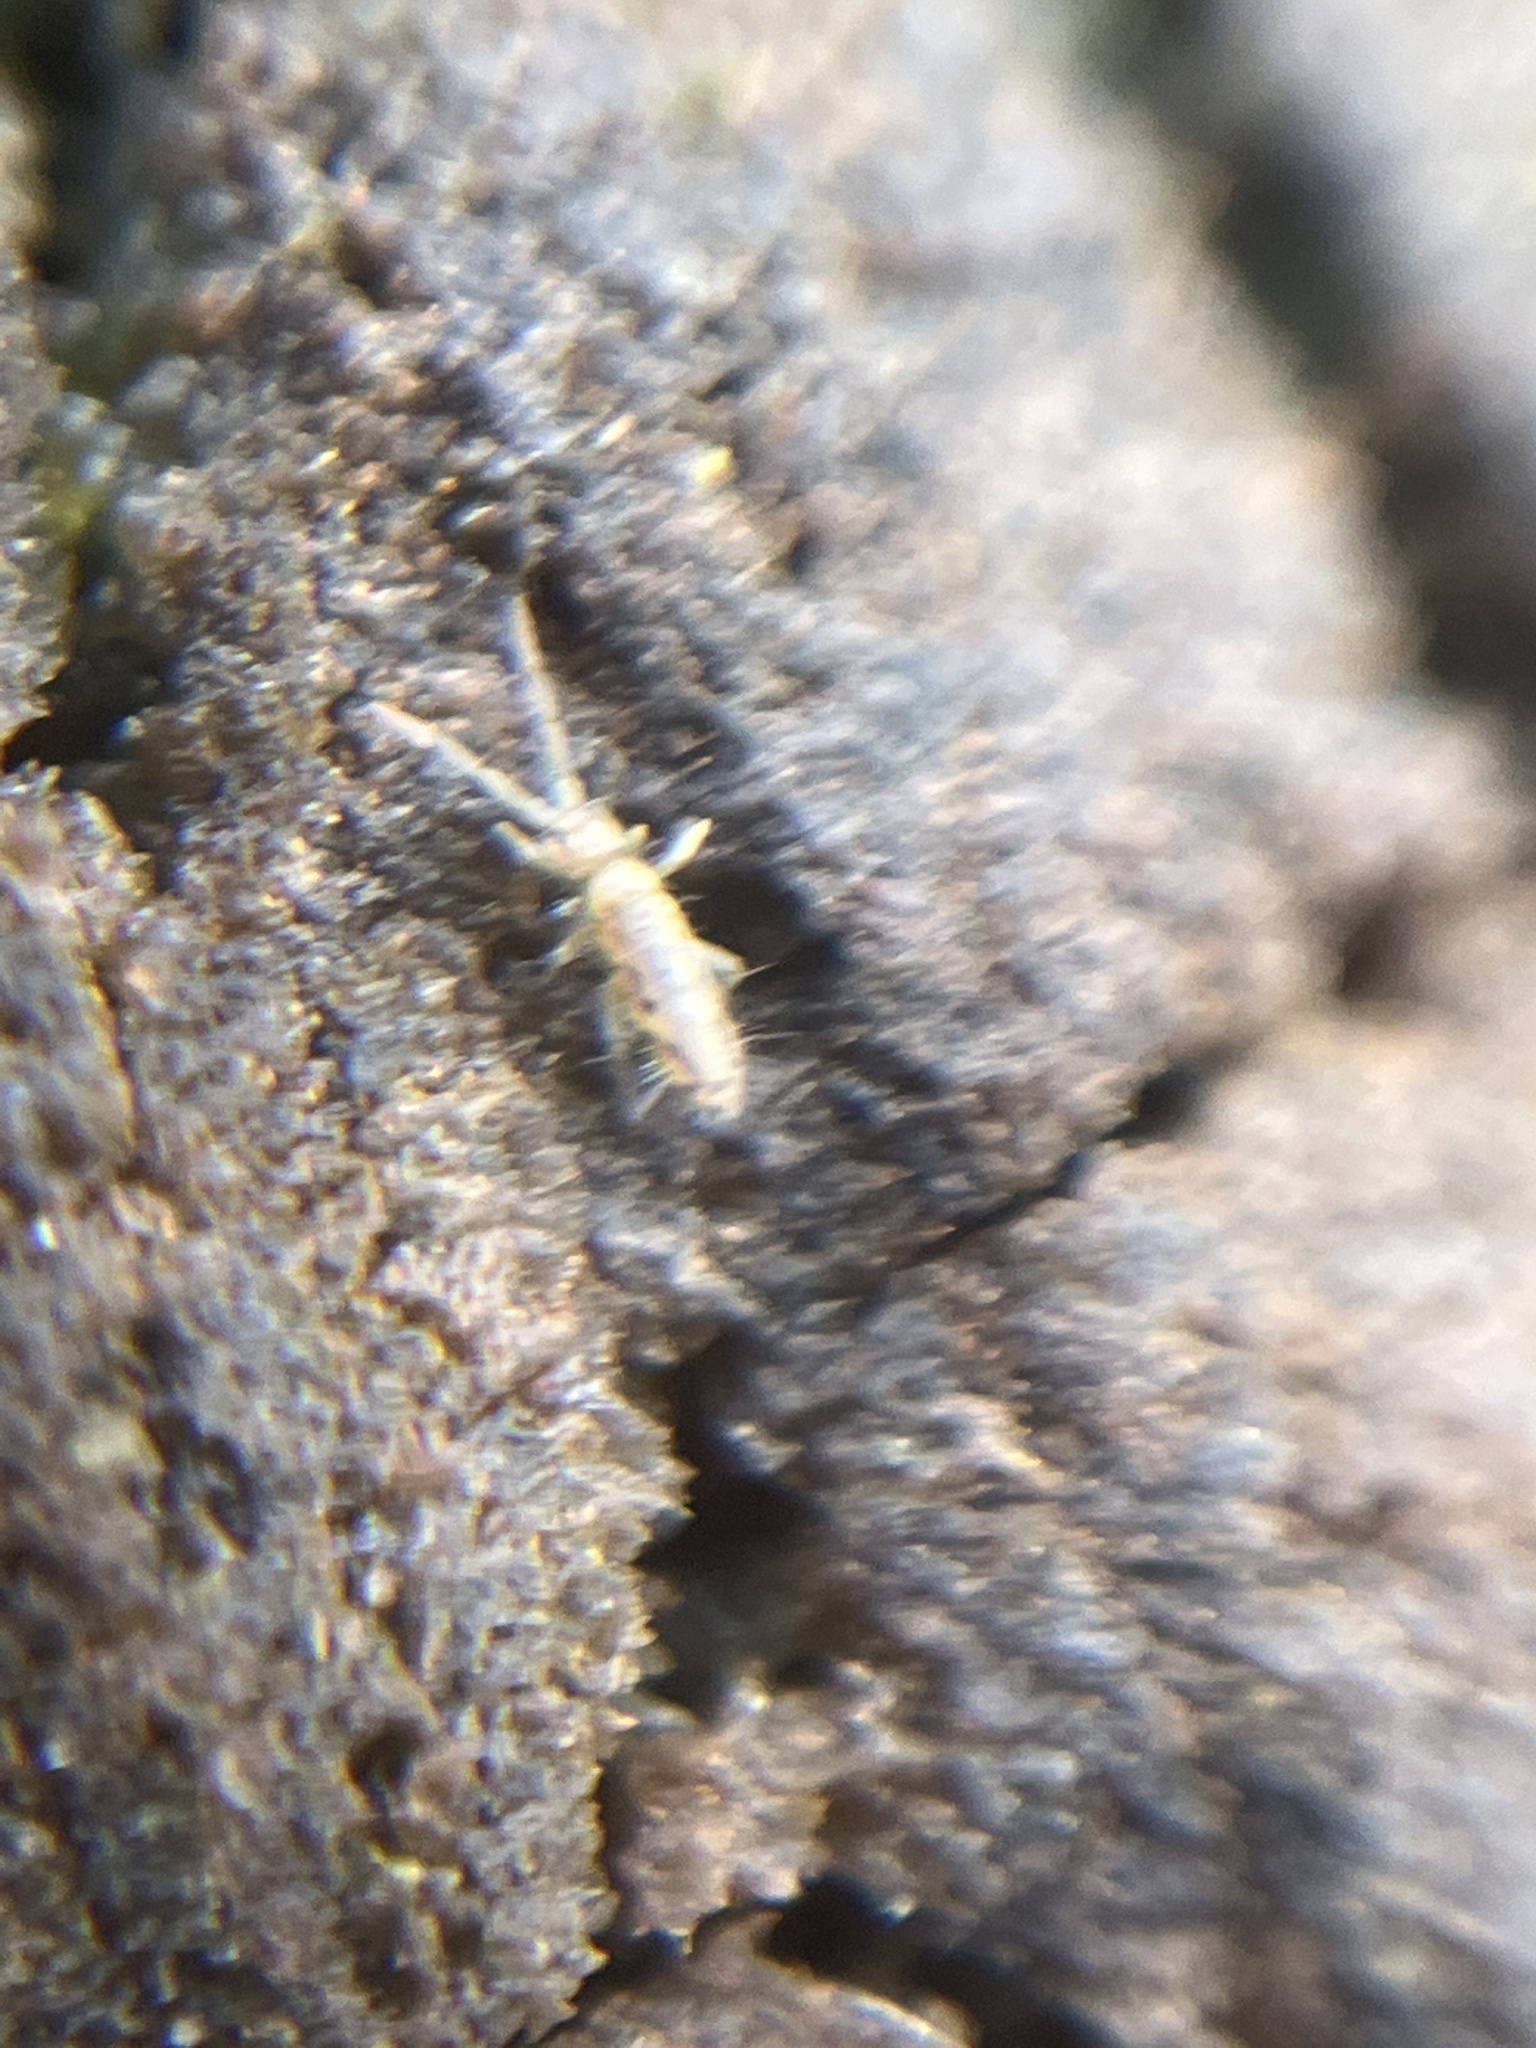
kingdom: Animalia
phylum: Arthropoda
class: Collembola
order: Entomobryomorpha
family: Entomobryidae
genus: Entomobrya
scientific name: Entomobrya intermedia
